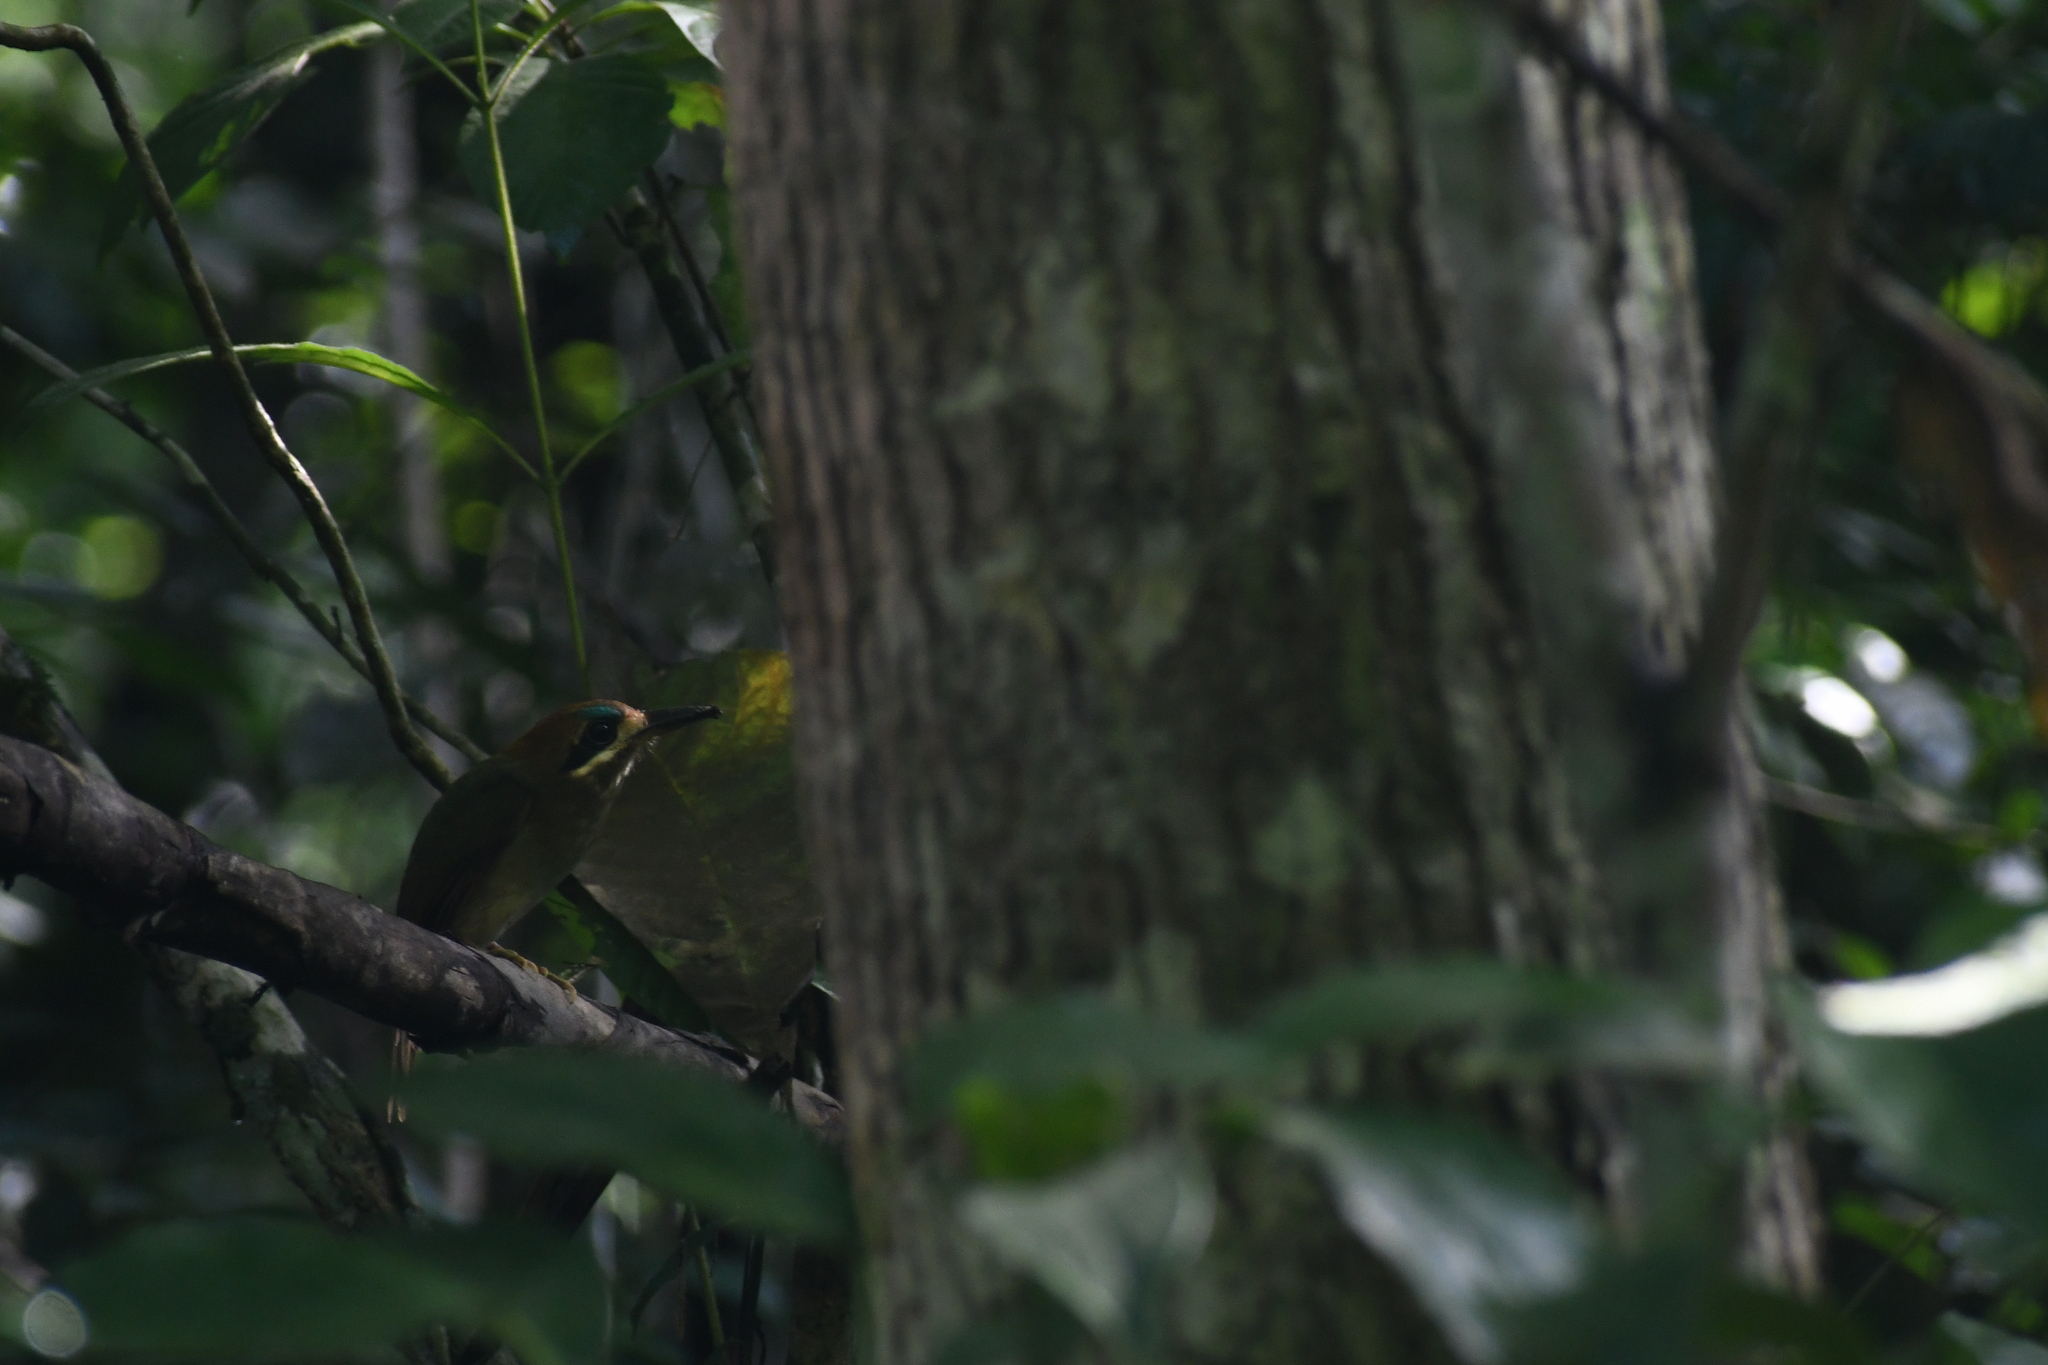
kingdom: Animalia
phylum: Chordata
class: Aves
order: Coraciiformes
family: Momotidae
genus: Hylomanes
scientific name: Hylomanes momotula
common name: Tody motmot
